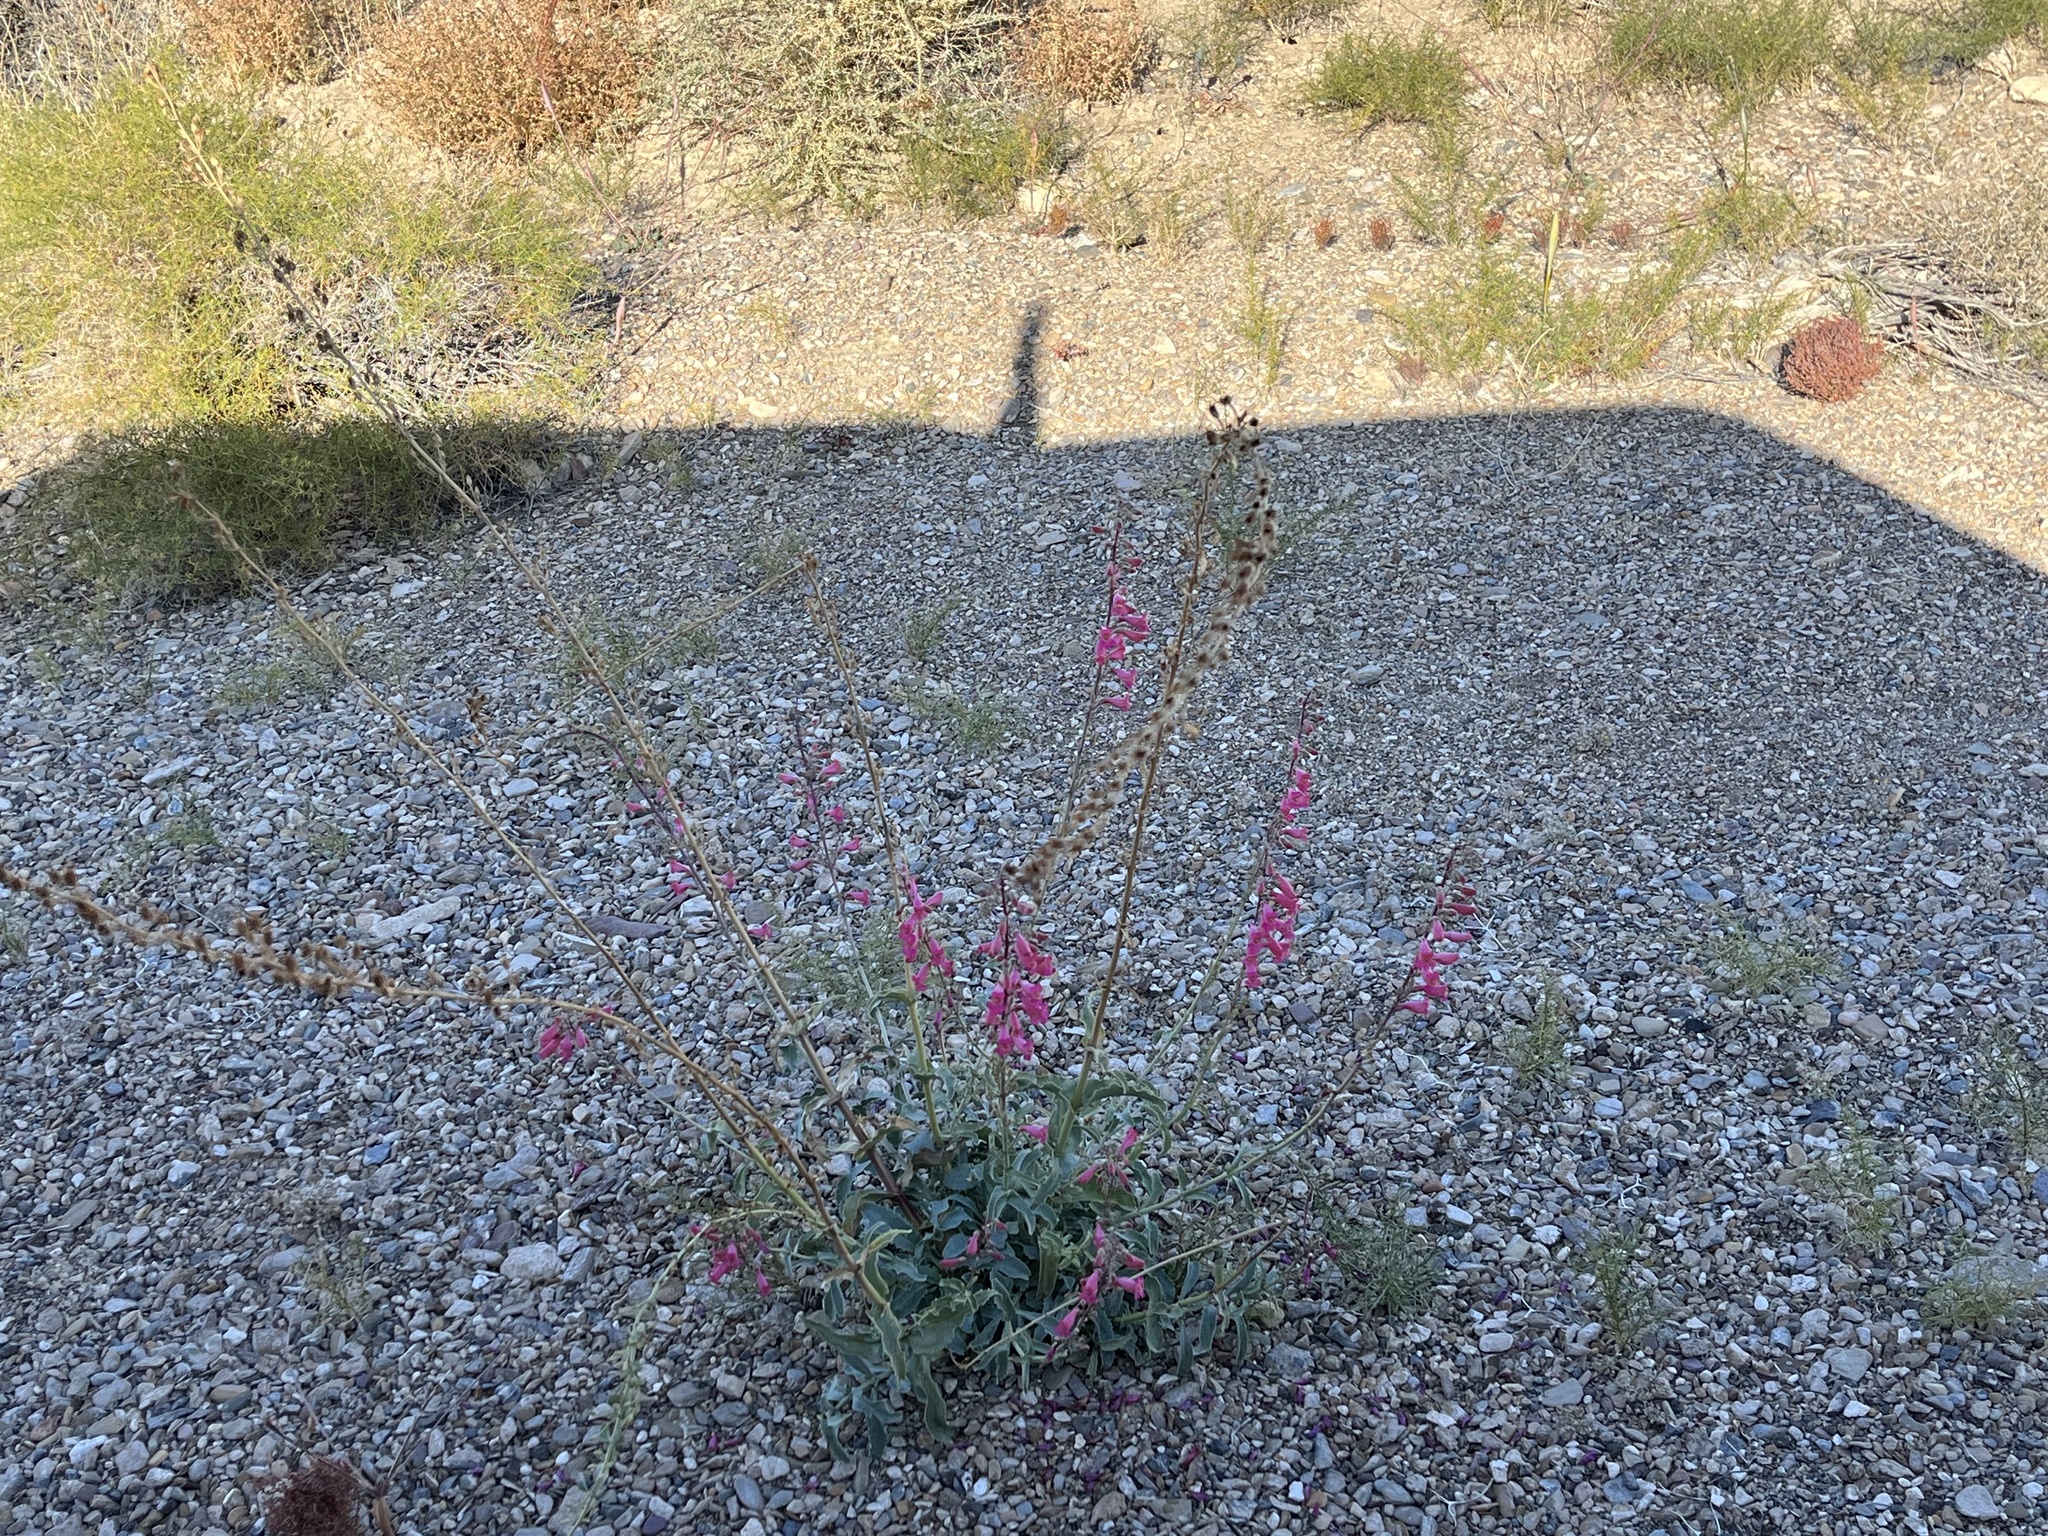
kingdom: Plantae
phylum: Tracheophyta
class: Magnoliopsida
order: Lamiales
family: Plantaginaceae
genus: Penstemon
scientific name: Penstemon floridus
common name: Panamint penstemon
